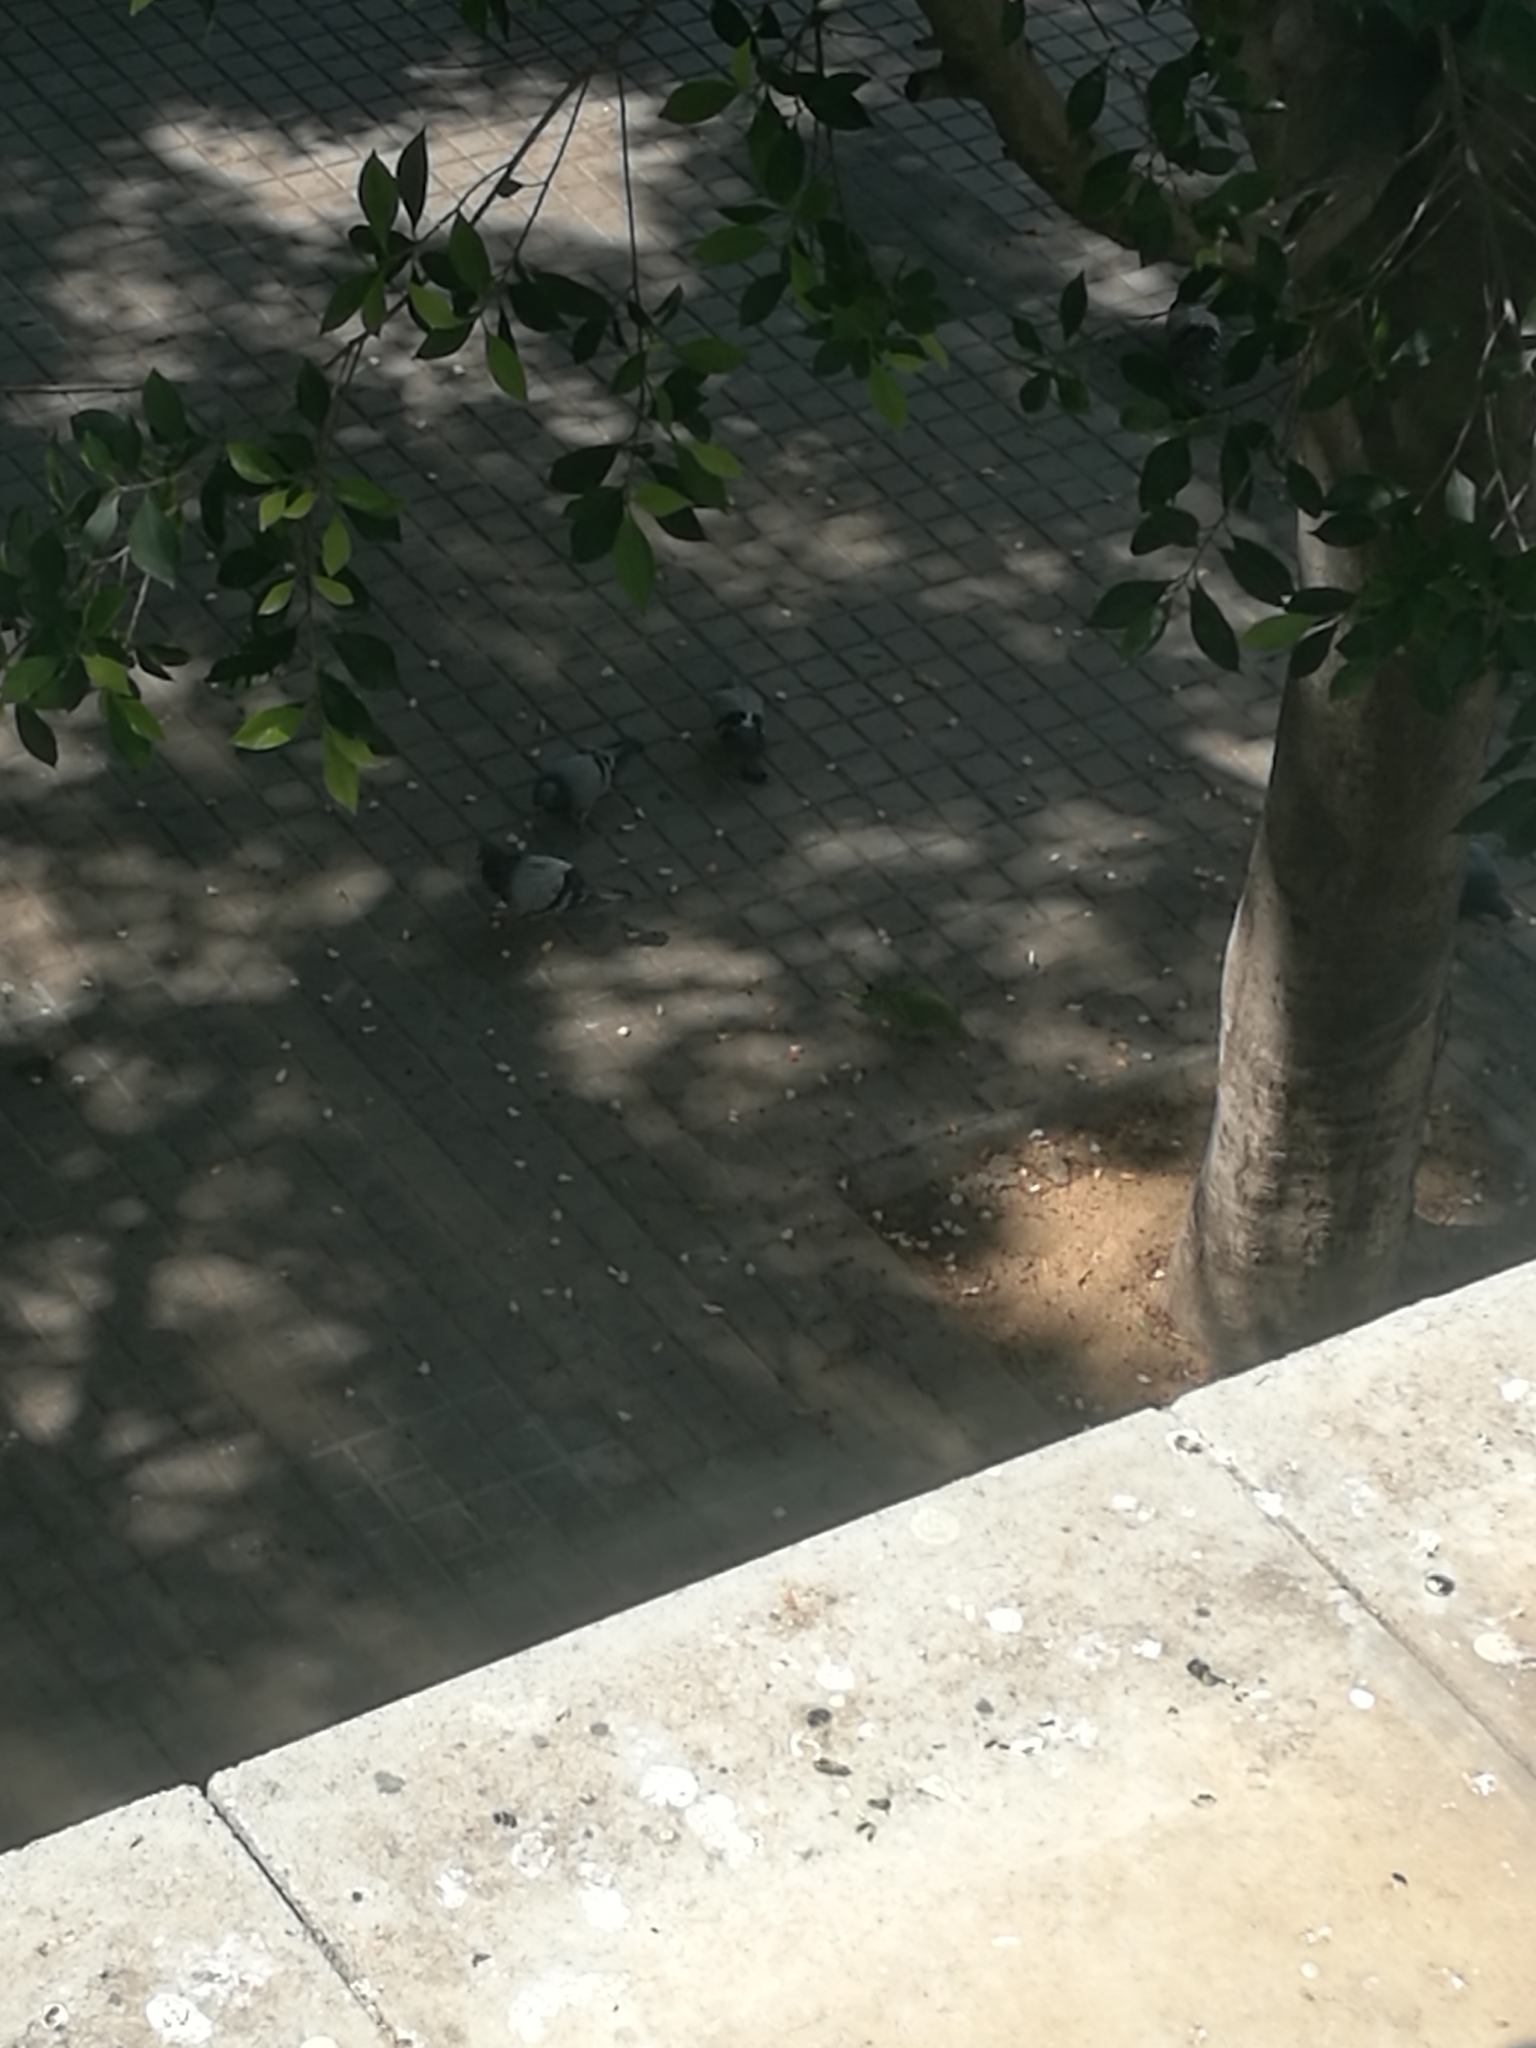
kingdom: Animalia
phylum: Chordata
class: Aves
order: Psittaciformes
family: Psittacidae
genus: Myiopsitta
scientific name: Myiopsitta monachus
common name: Monk parakeet
